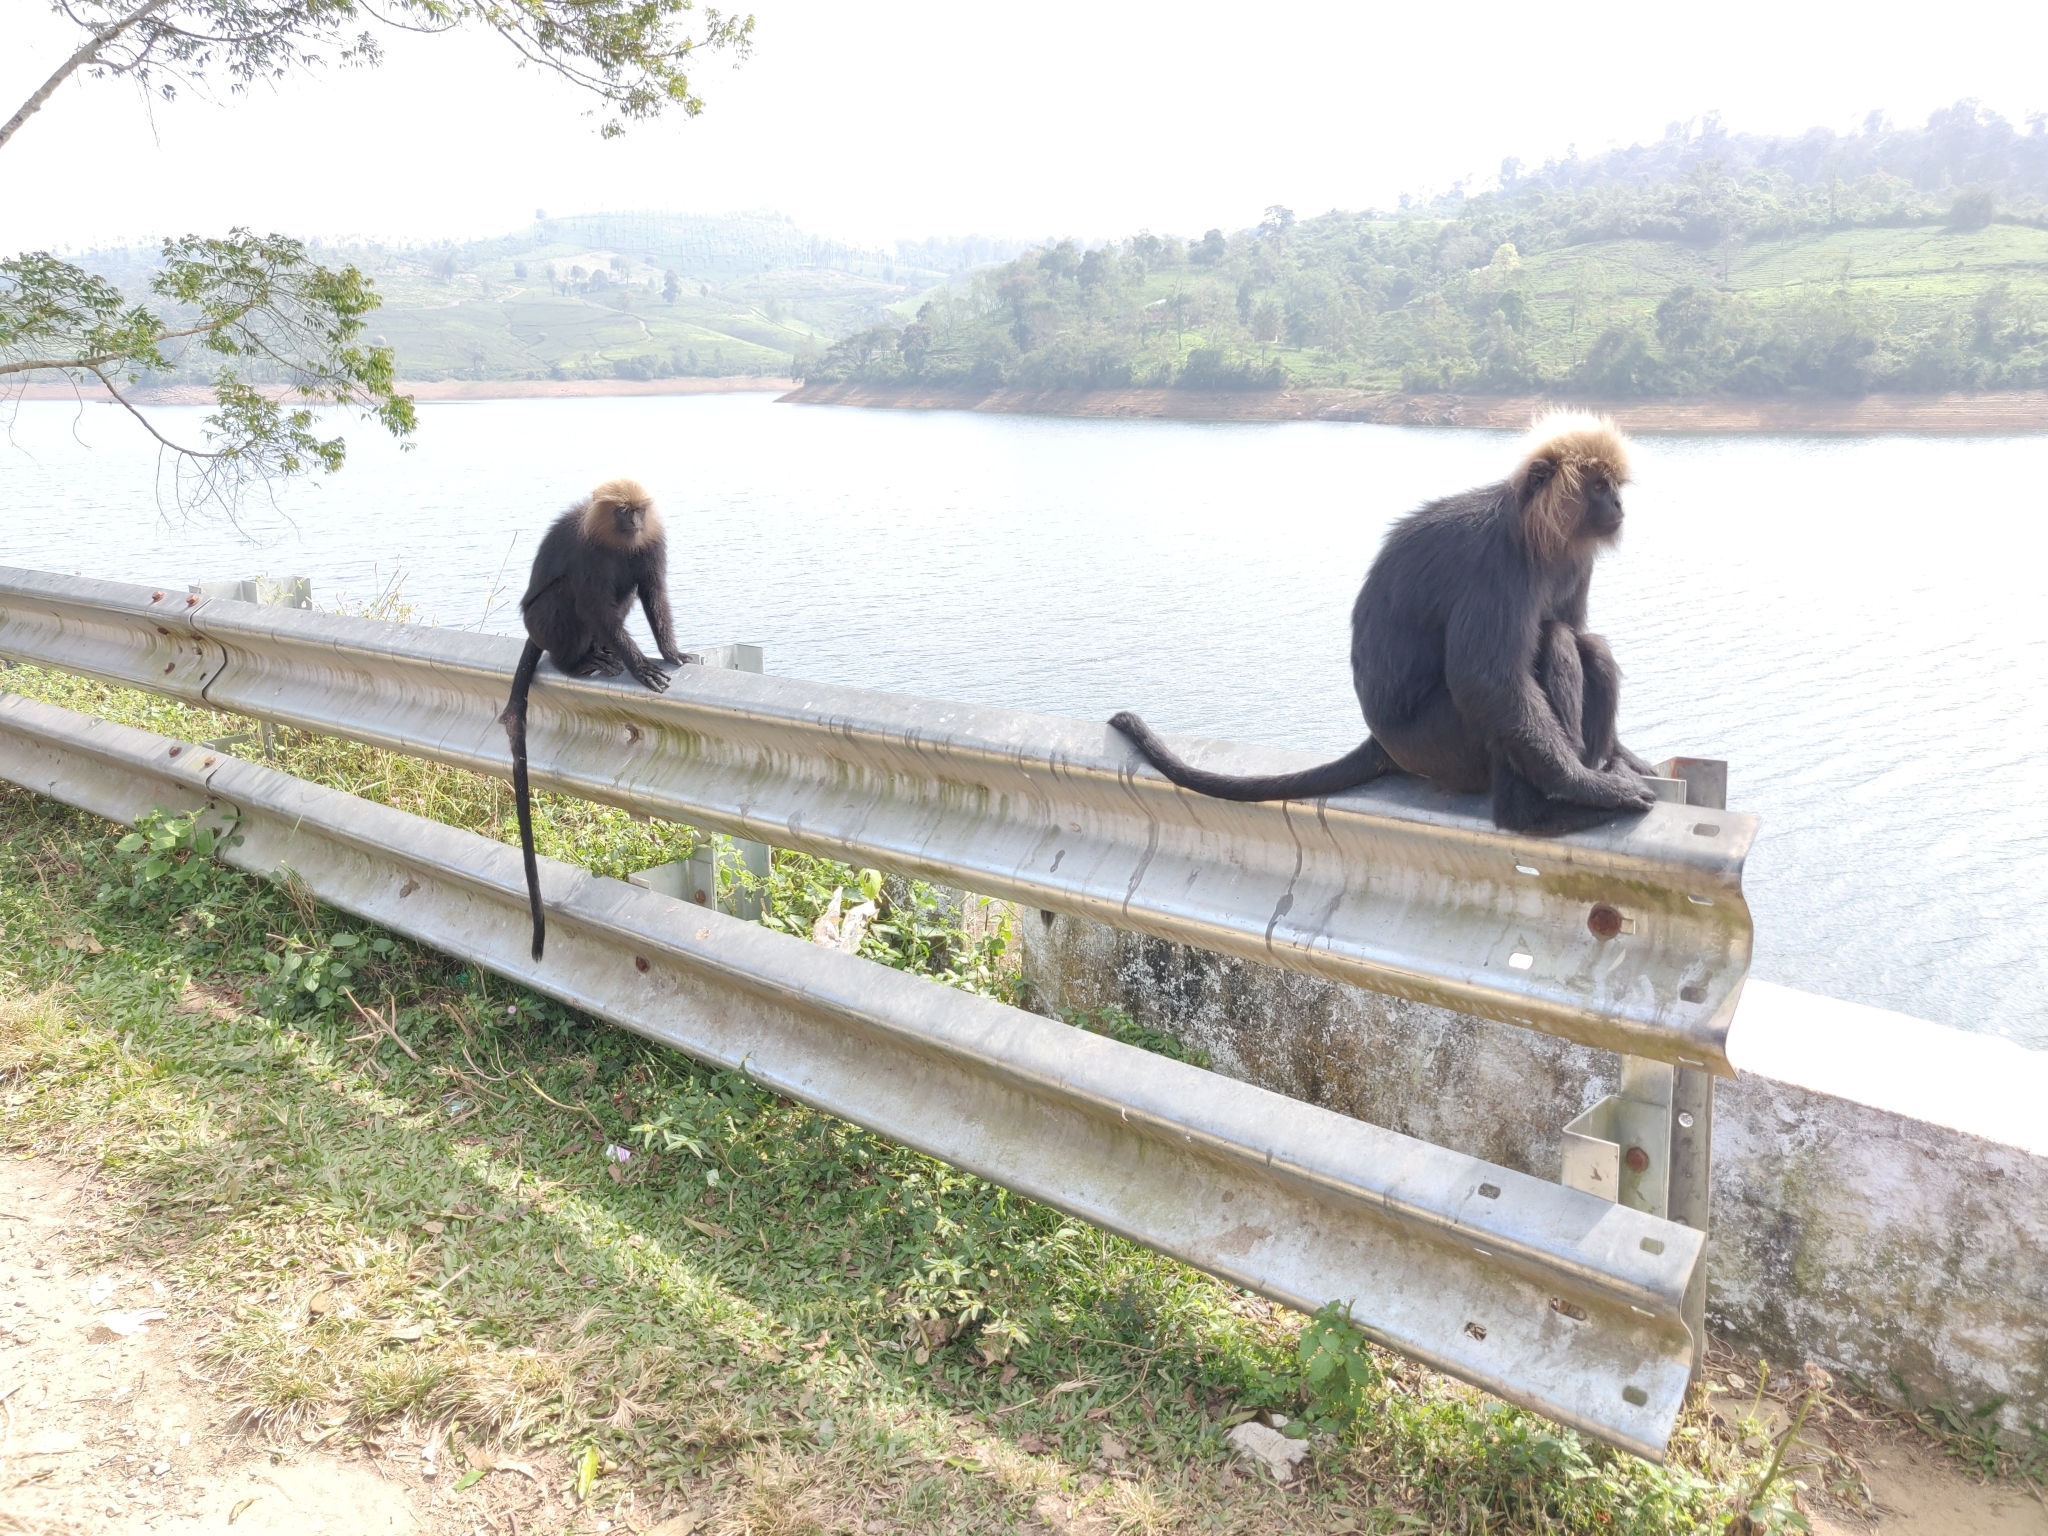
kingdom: Animalia
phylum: Chordata
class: Mammalia
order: Primates
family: Cercopithecidae
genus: Semnopithecus
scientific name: Semnopithecus johnii
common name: Nilgiri langur
